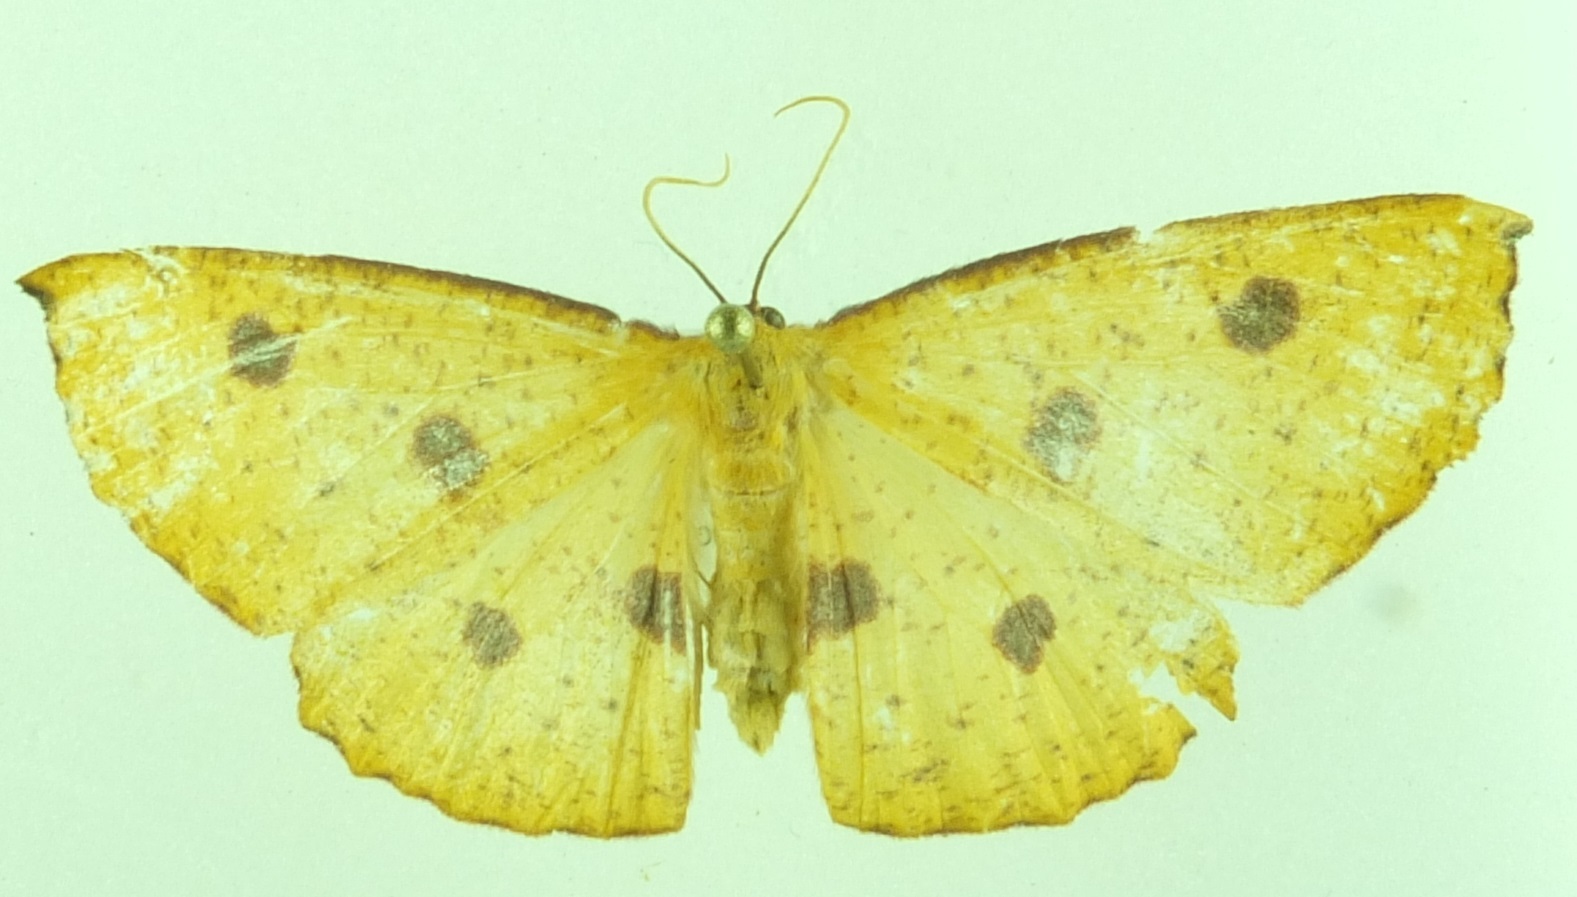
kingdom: Animalia
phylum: Arthropoda
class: Insecta
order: Lepidoptera
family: Geometridae
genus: Xyridacma
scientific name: Xyridacma alectoraria
